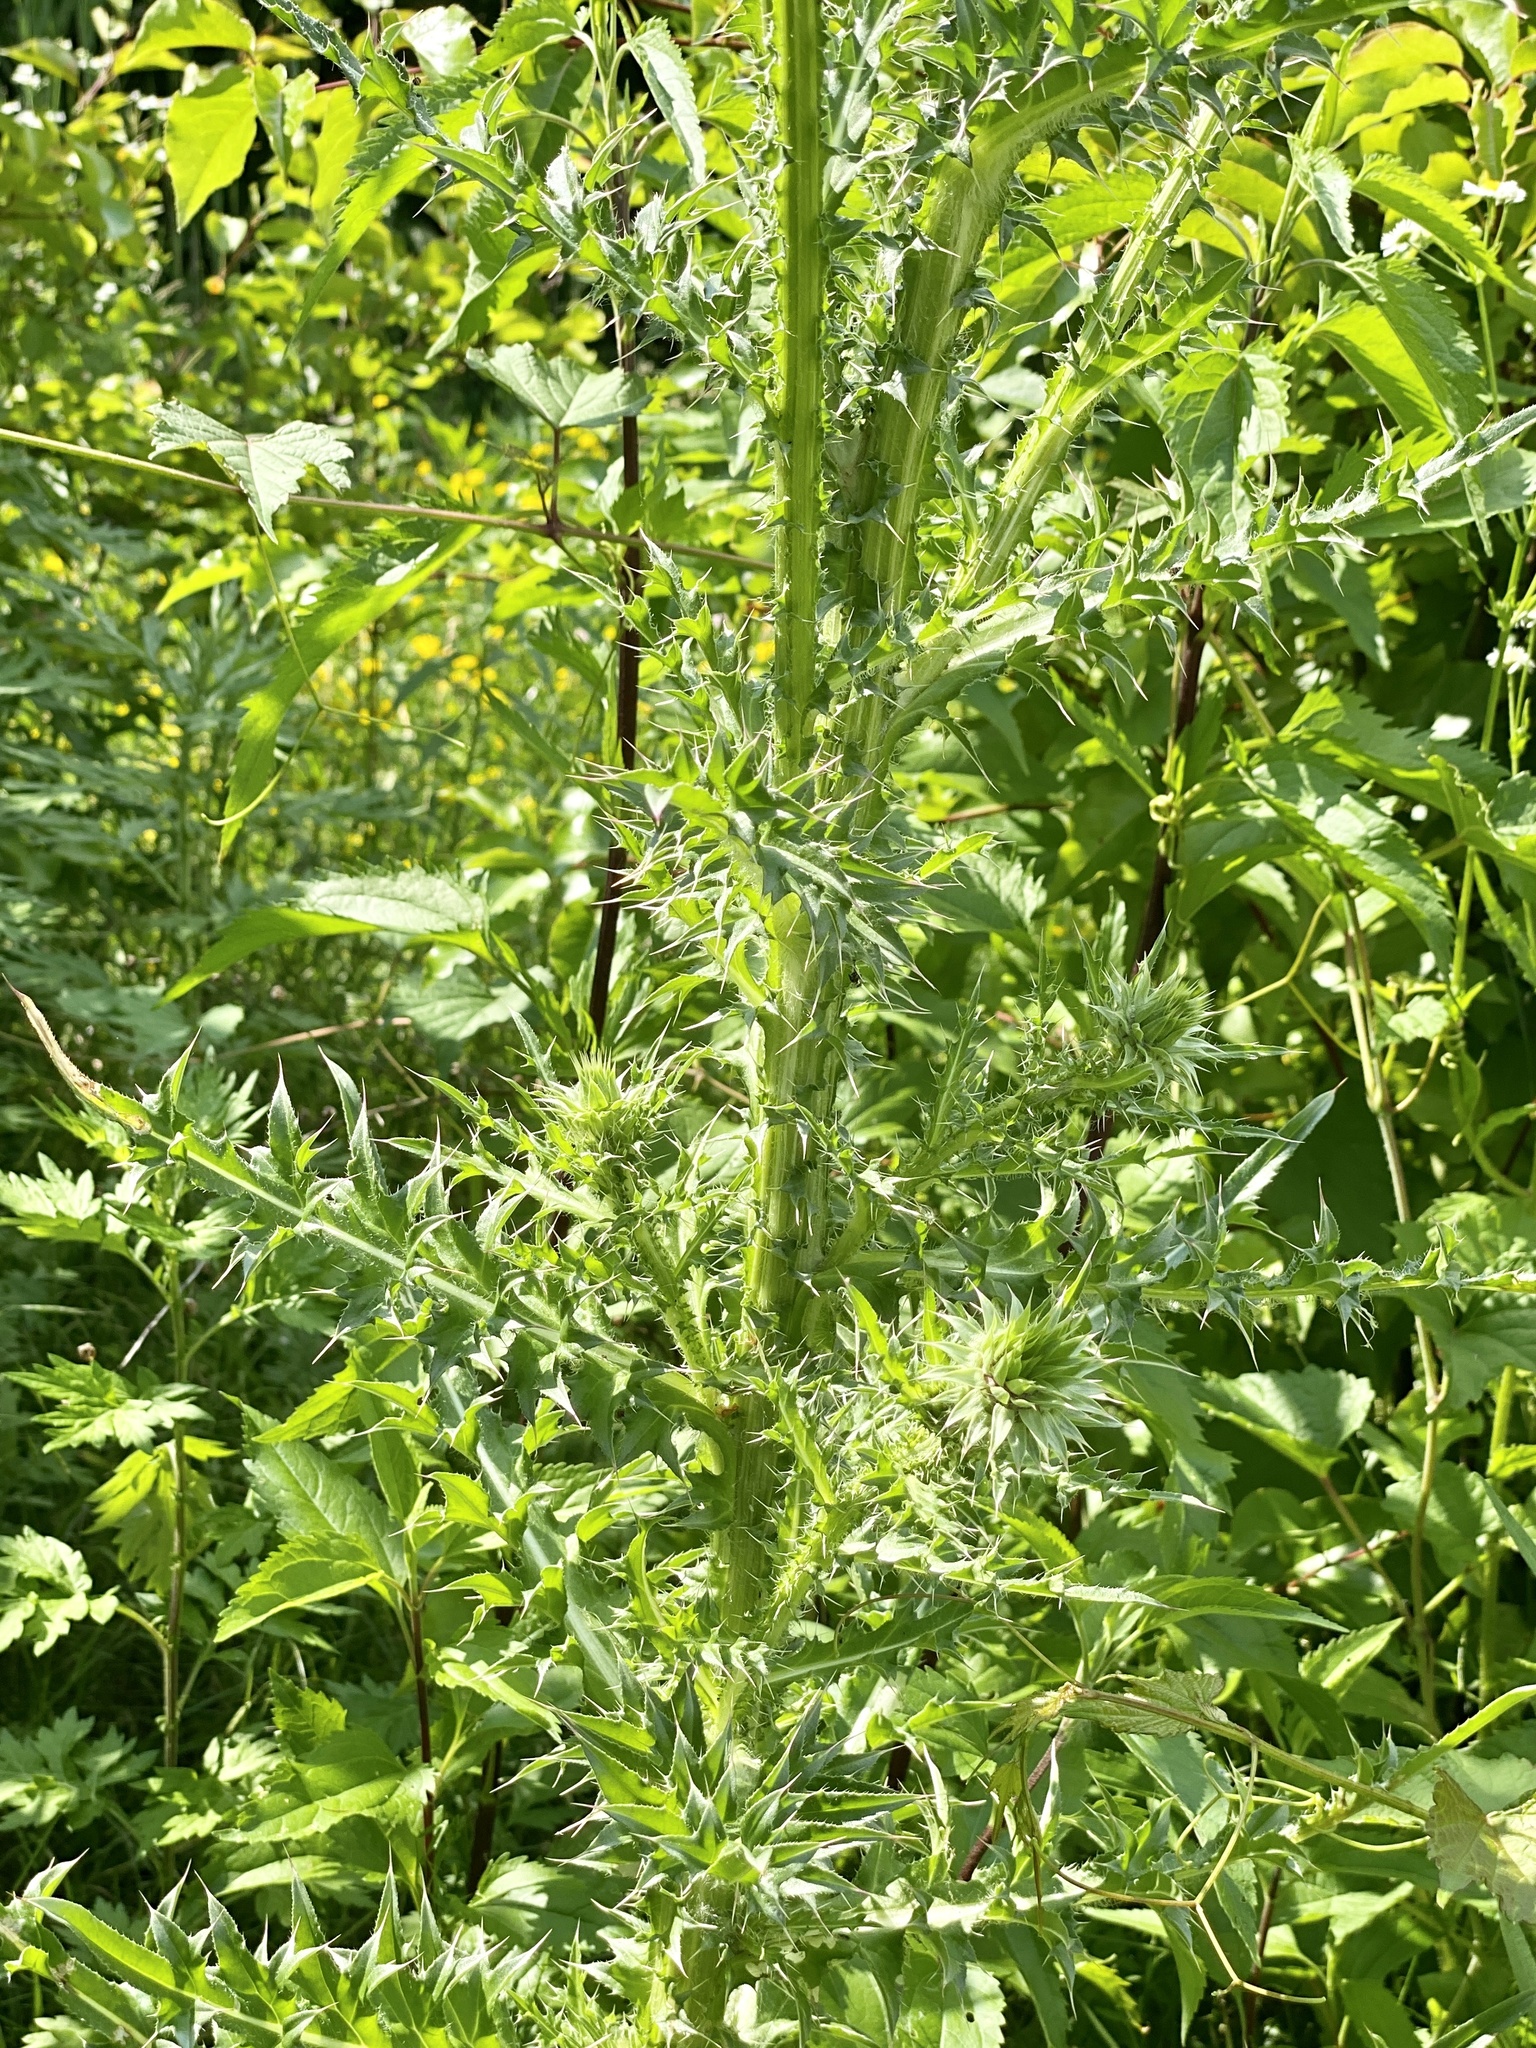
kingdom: Plantae
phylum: Tracheophyta
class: Magnoliopsida
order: Asterales
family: Asteraceae
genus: Carduus
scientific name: Carduus nutans
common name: Musk thistle
